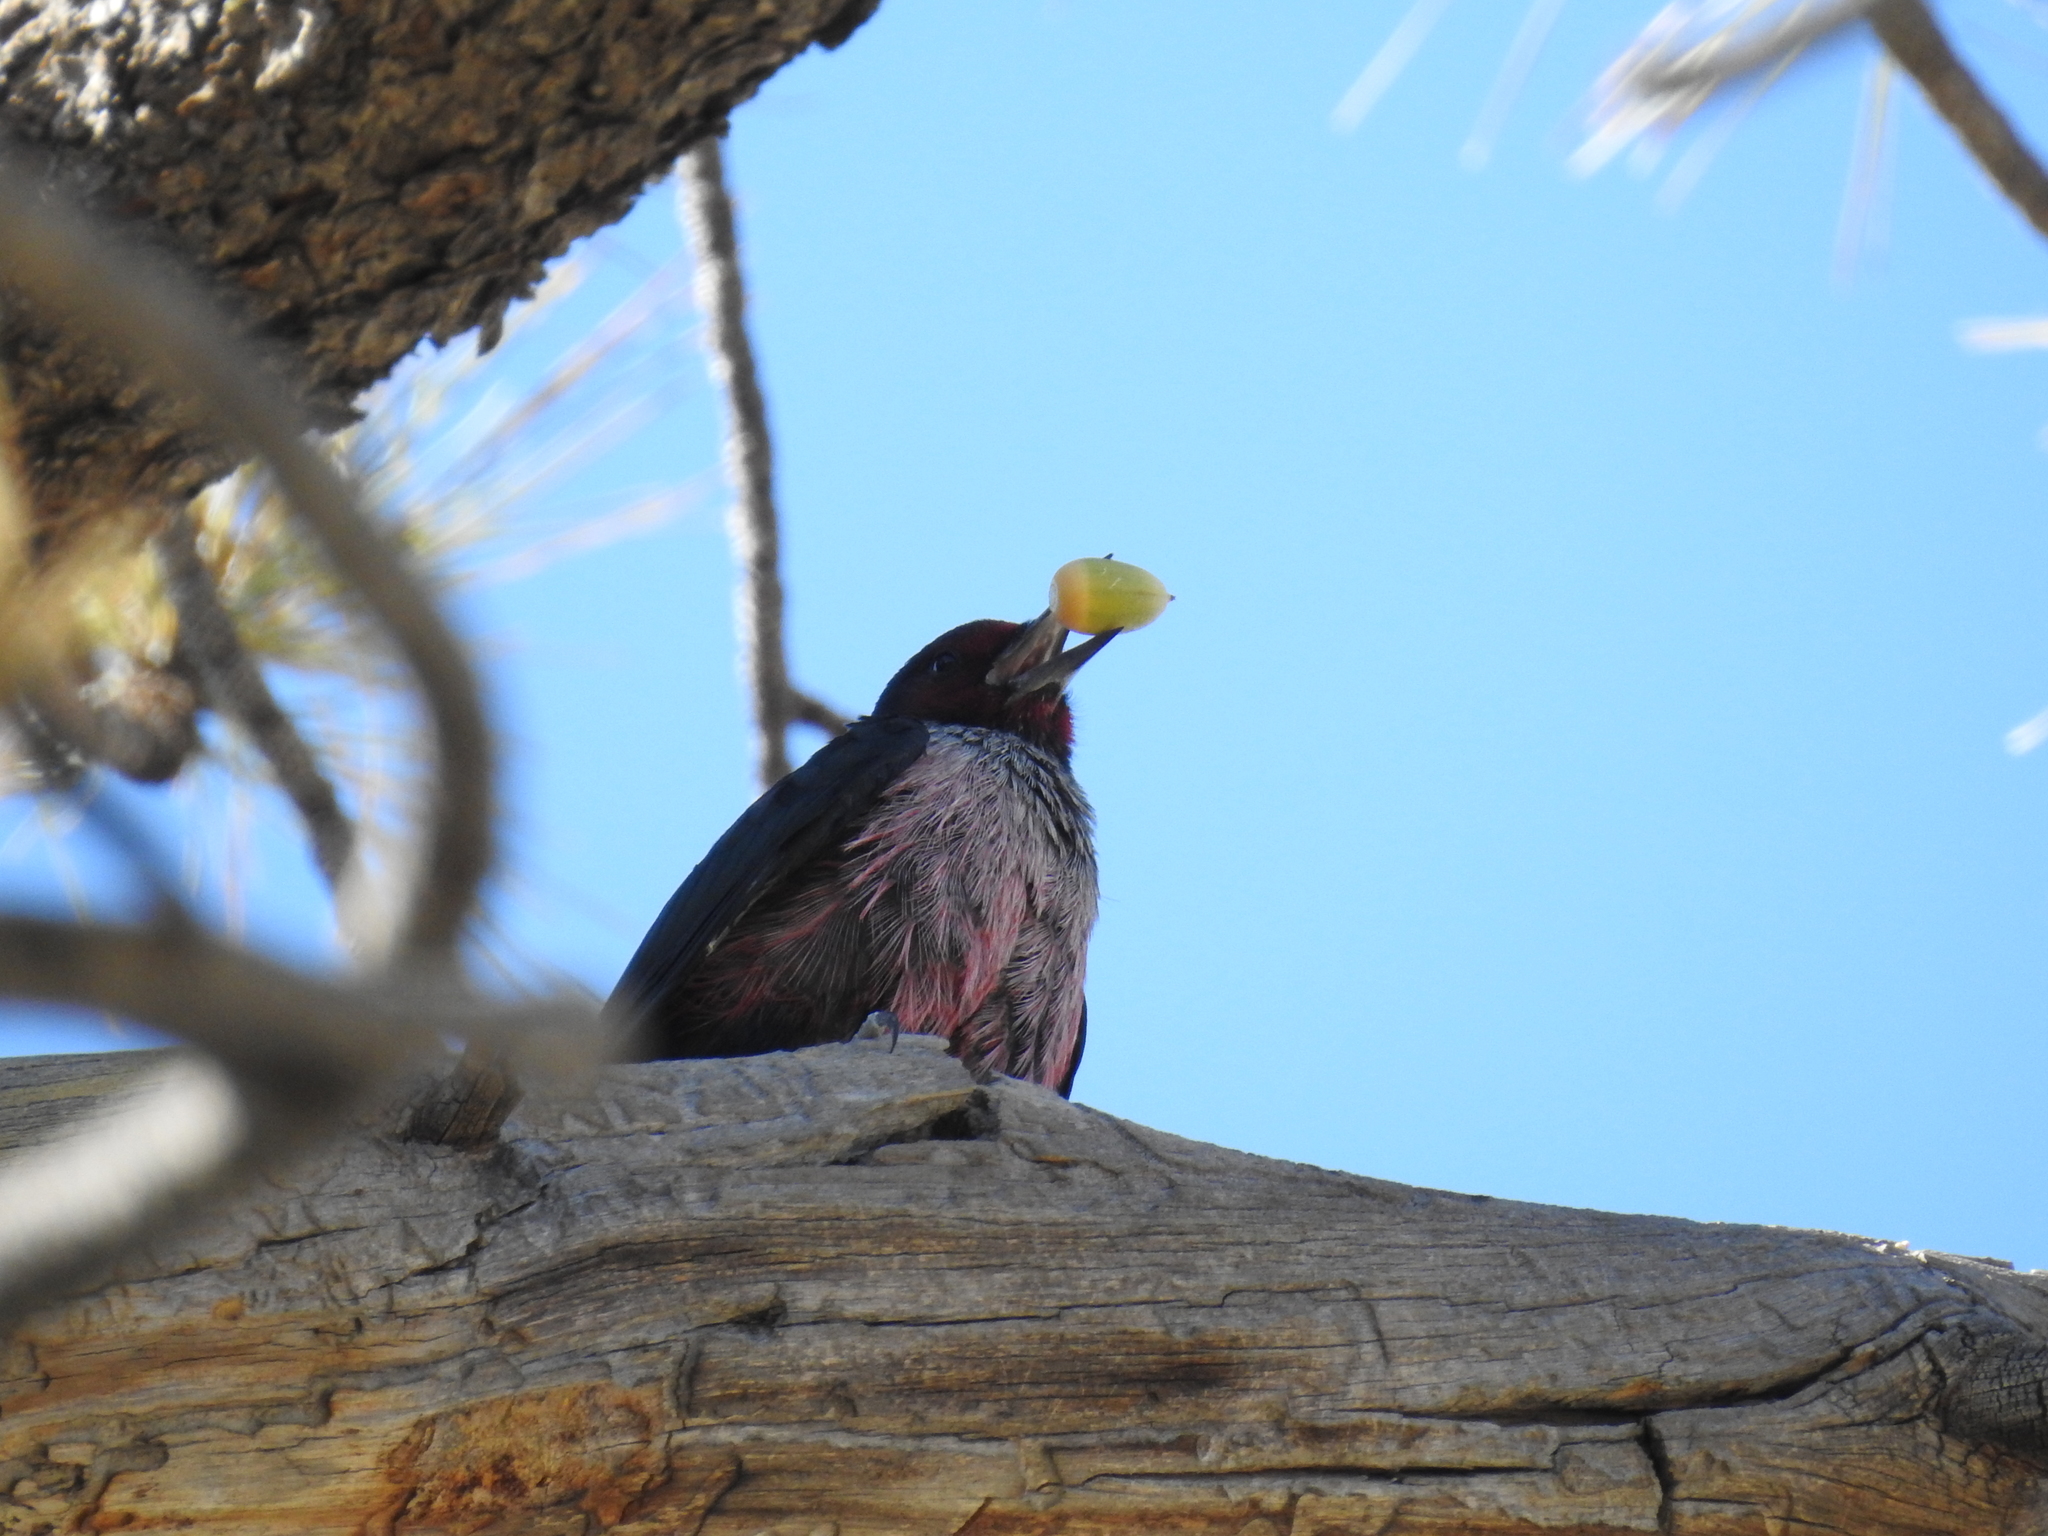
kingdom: Animalia
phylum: Chordata
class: Aves
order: Piciformes
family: Picidae
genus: Melanerpes
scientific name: Melanerpes lewis
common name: Lewis's woodpecker
